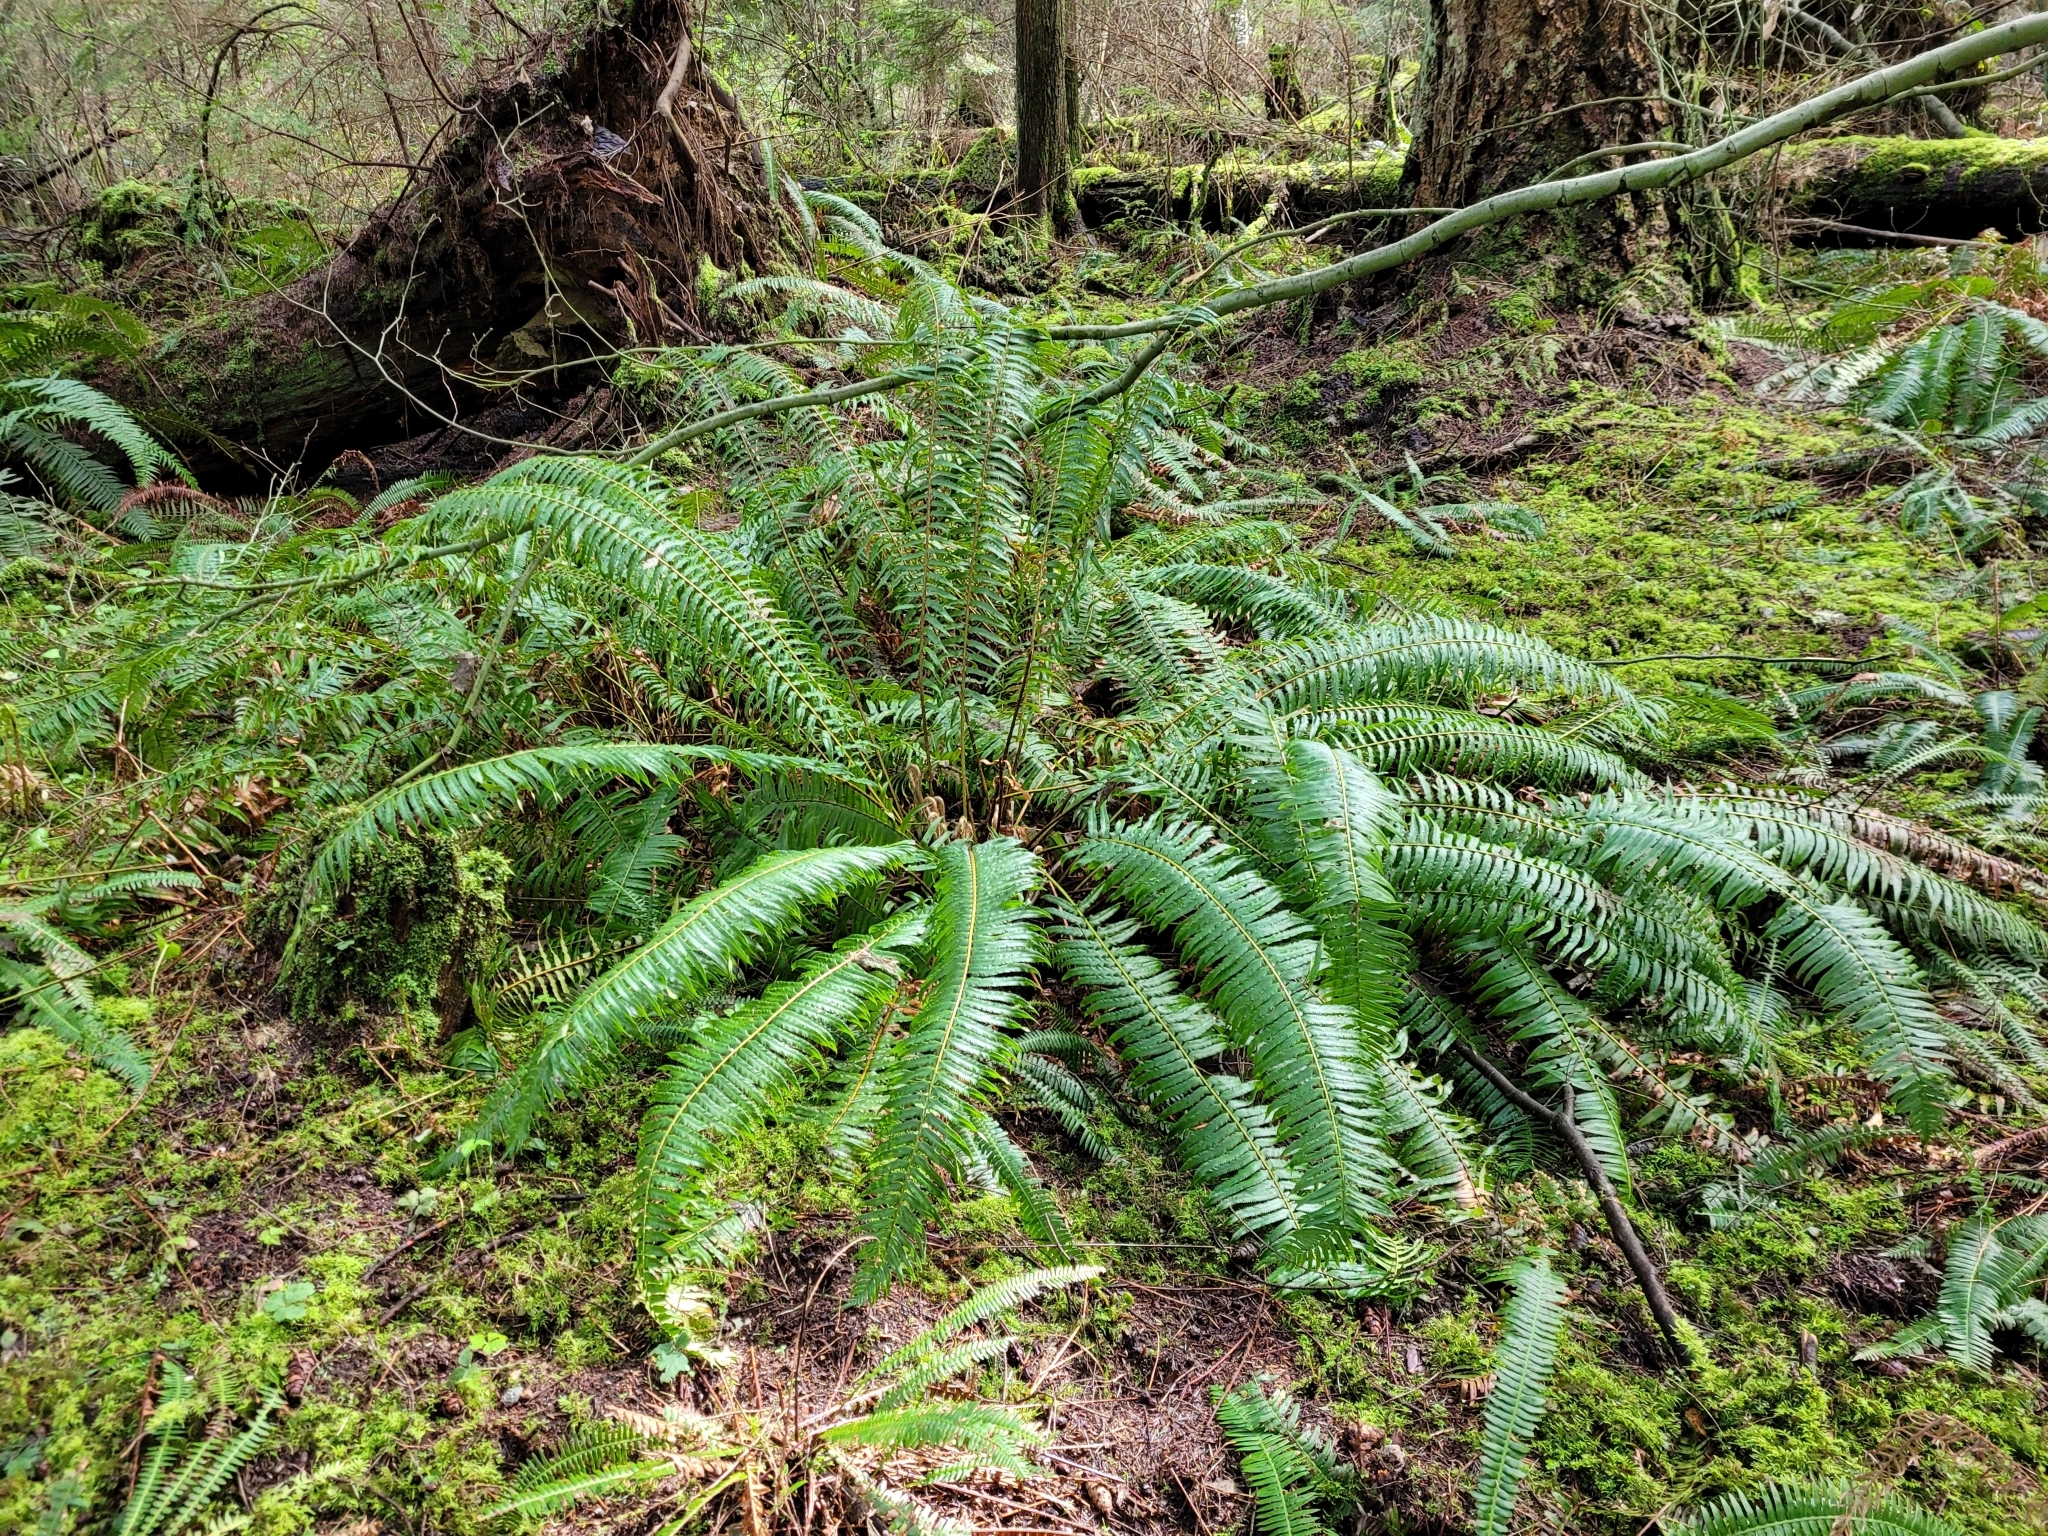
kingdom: Plantae
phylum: Tracheophyta
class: Polypodiopsida
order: Polypodiales
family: Dryopteridaceae
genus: Polystichum
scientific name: Polystichum munitum
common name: Western sword-fern
